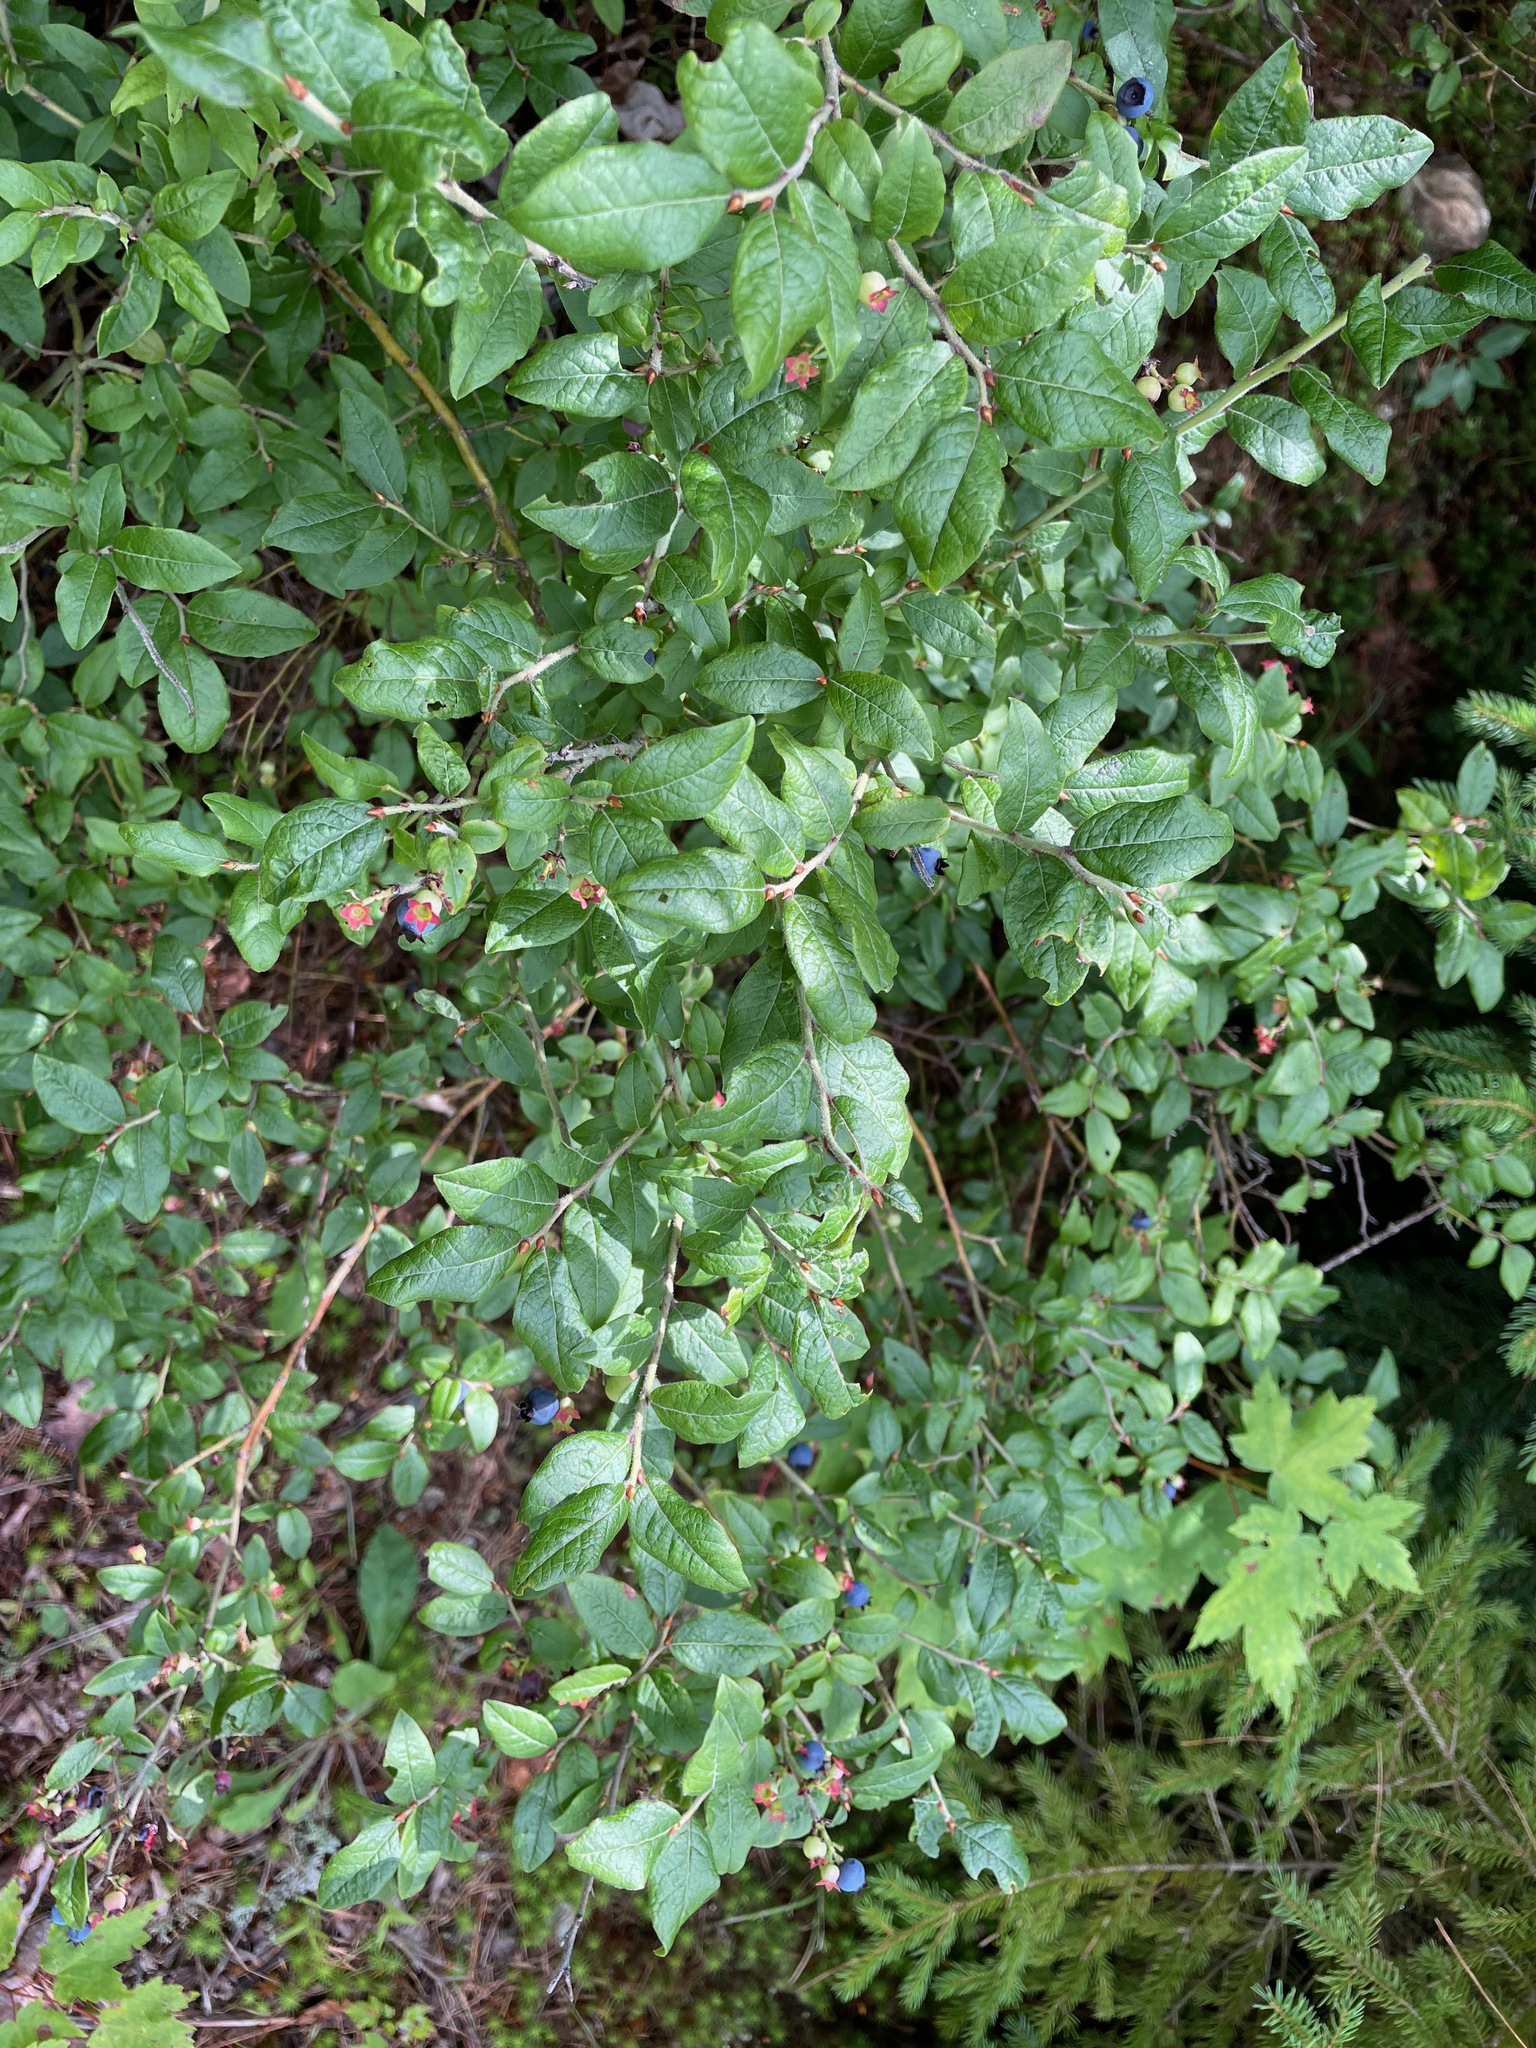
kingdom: Plantae
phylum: Tracheophyta
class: Magnoliopsida
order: Ericales
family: Ericaceae
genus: Vaccinium
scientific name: Vaccinium myrtilloides
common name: Canada blueberry
